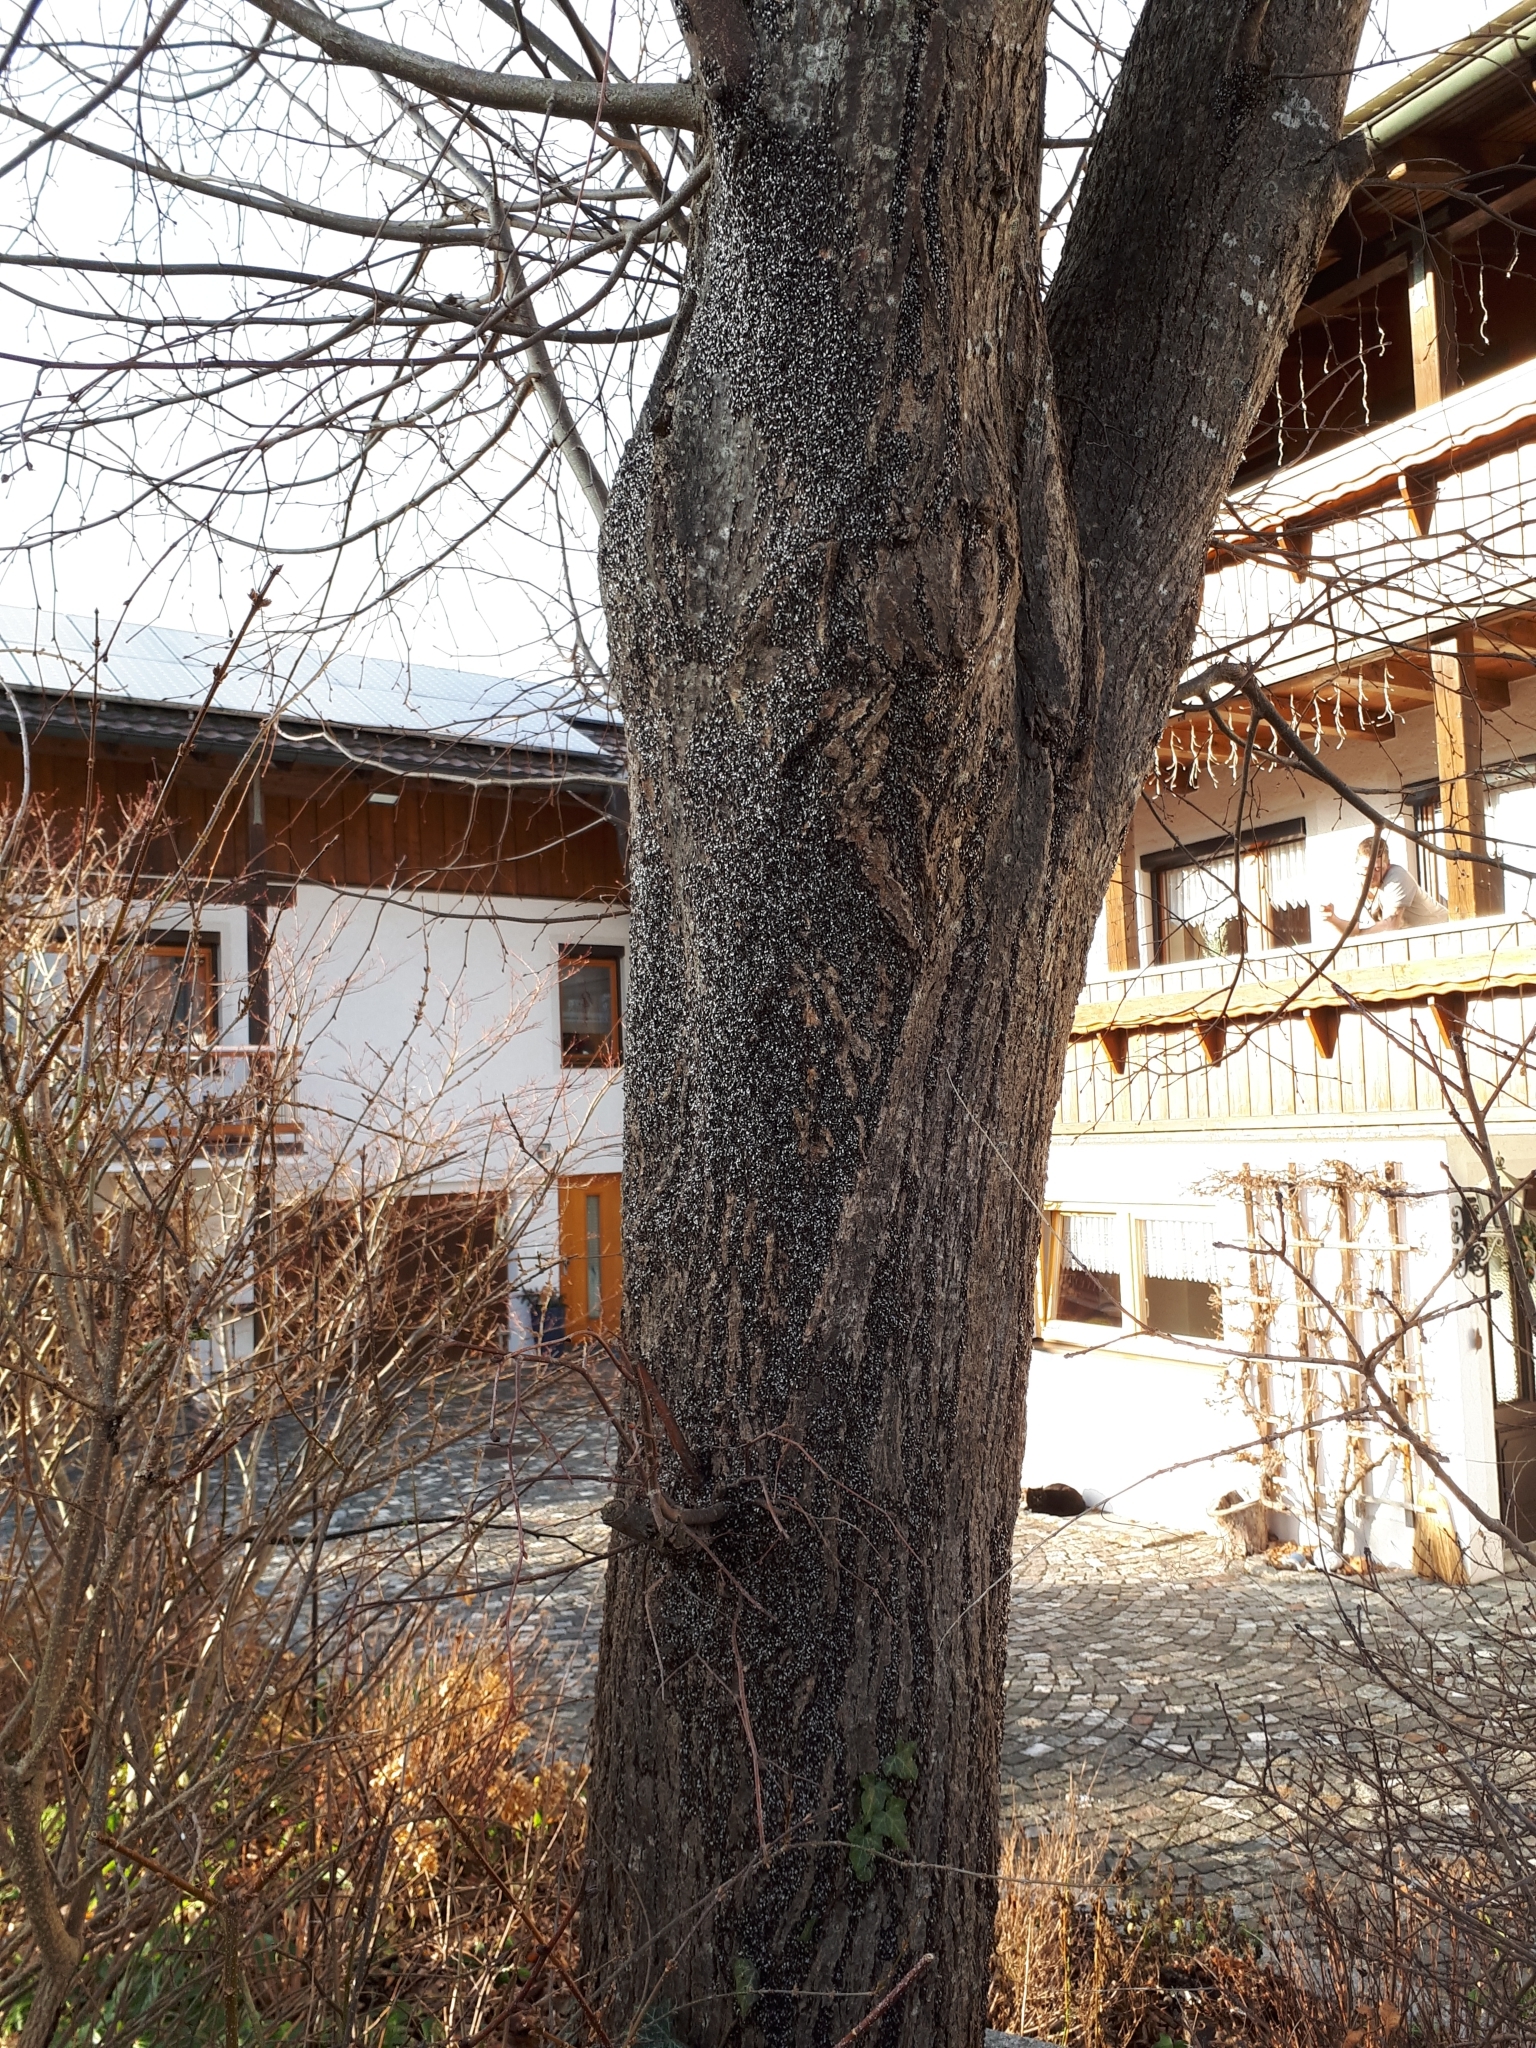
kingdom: Animalia
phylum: Arthropoda
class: Insecta
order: Hemiptera
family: Oxycarenidae
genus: Oxycarenus
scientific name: Oxycarenus lavaterae
